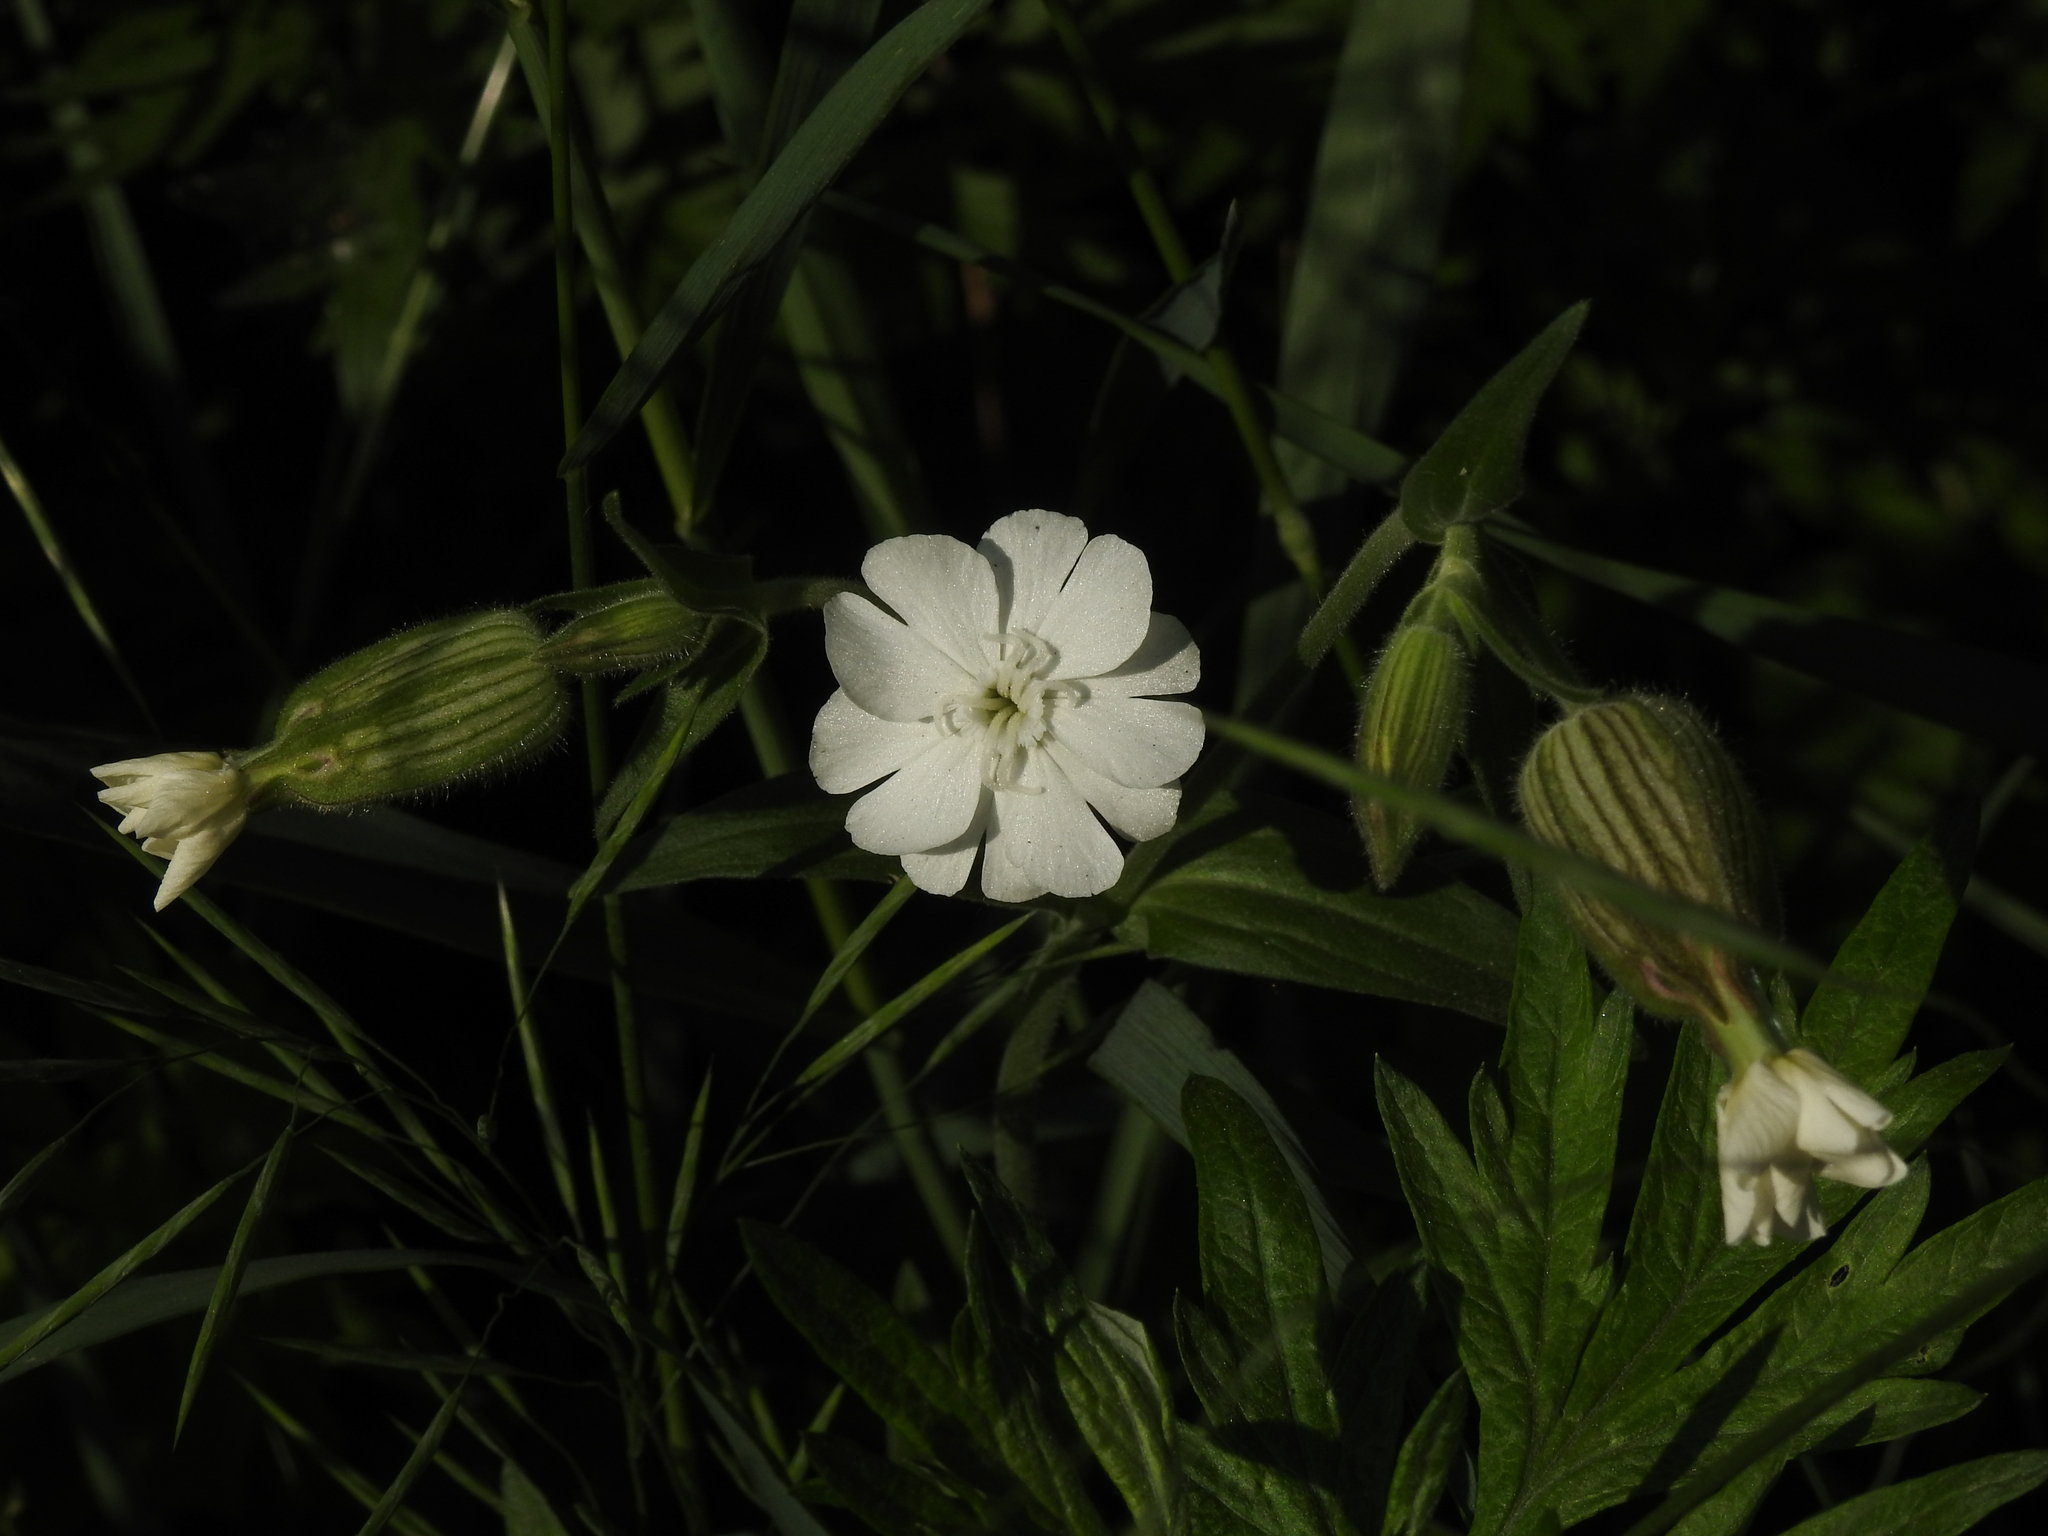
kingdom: Plantae
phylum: Tracheophyta
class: Magnoliopsida
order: Caryophyllales
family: Caryophyllaceae
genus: Silene
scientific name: Silene latifolia
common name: White campion
